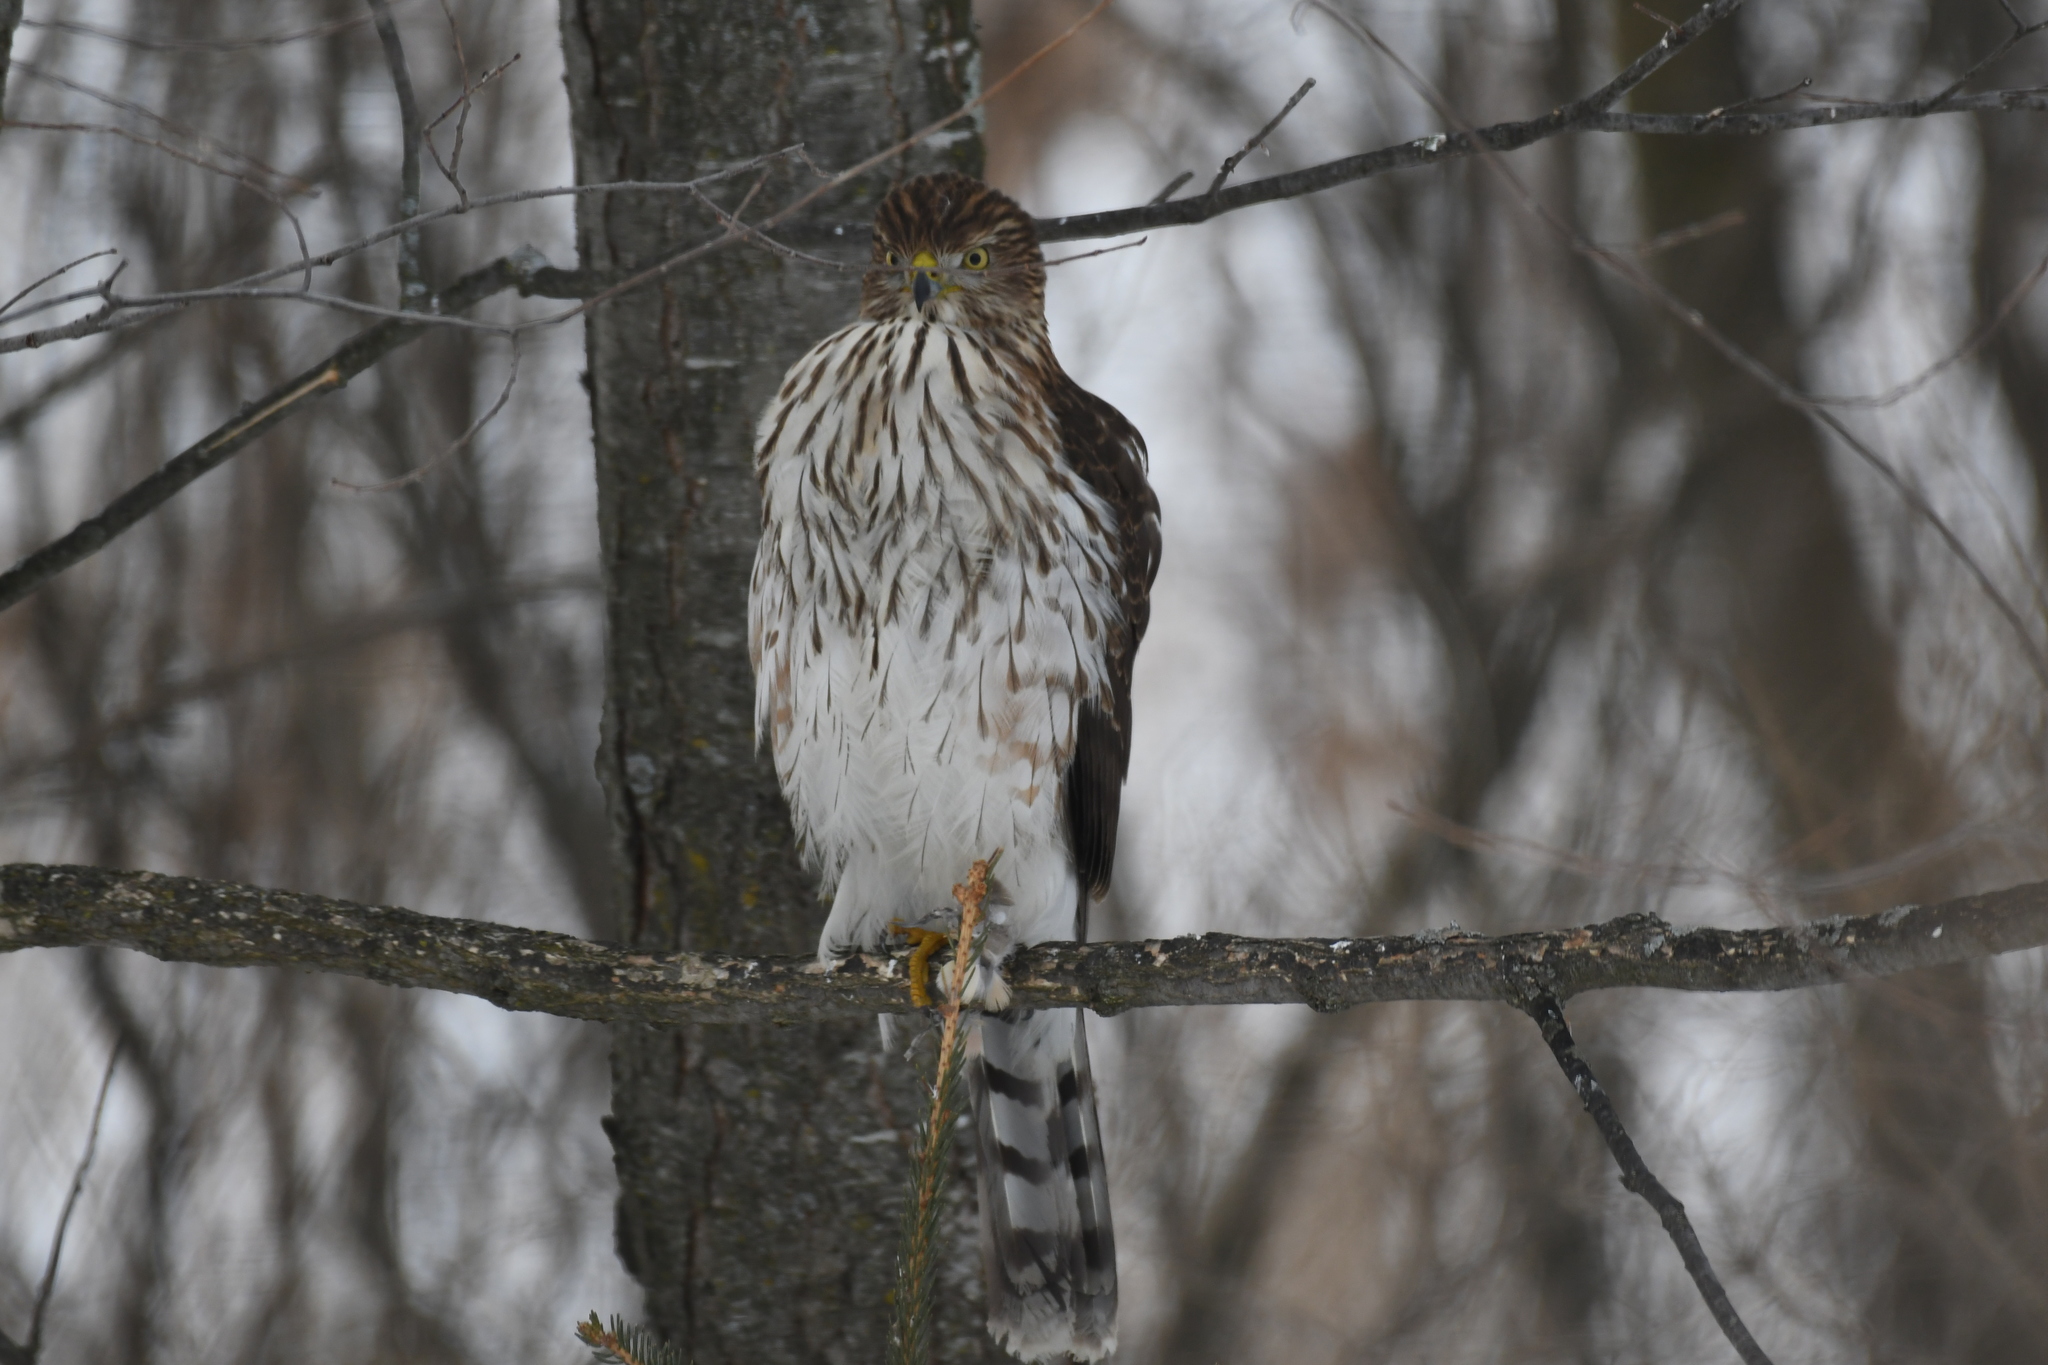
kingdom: Animalia
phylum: Chordata
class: Aves
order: Accipitriformes
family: Accipitridae
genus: Accipiter
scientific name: Accipiter cooperii
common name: Cooper's hawk
